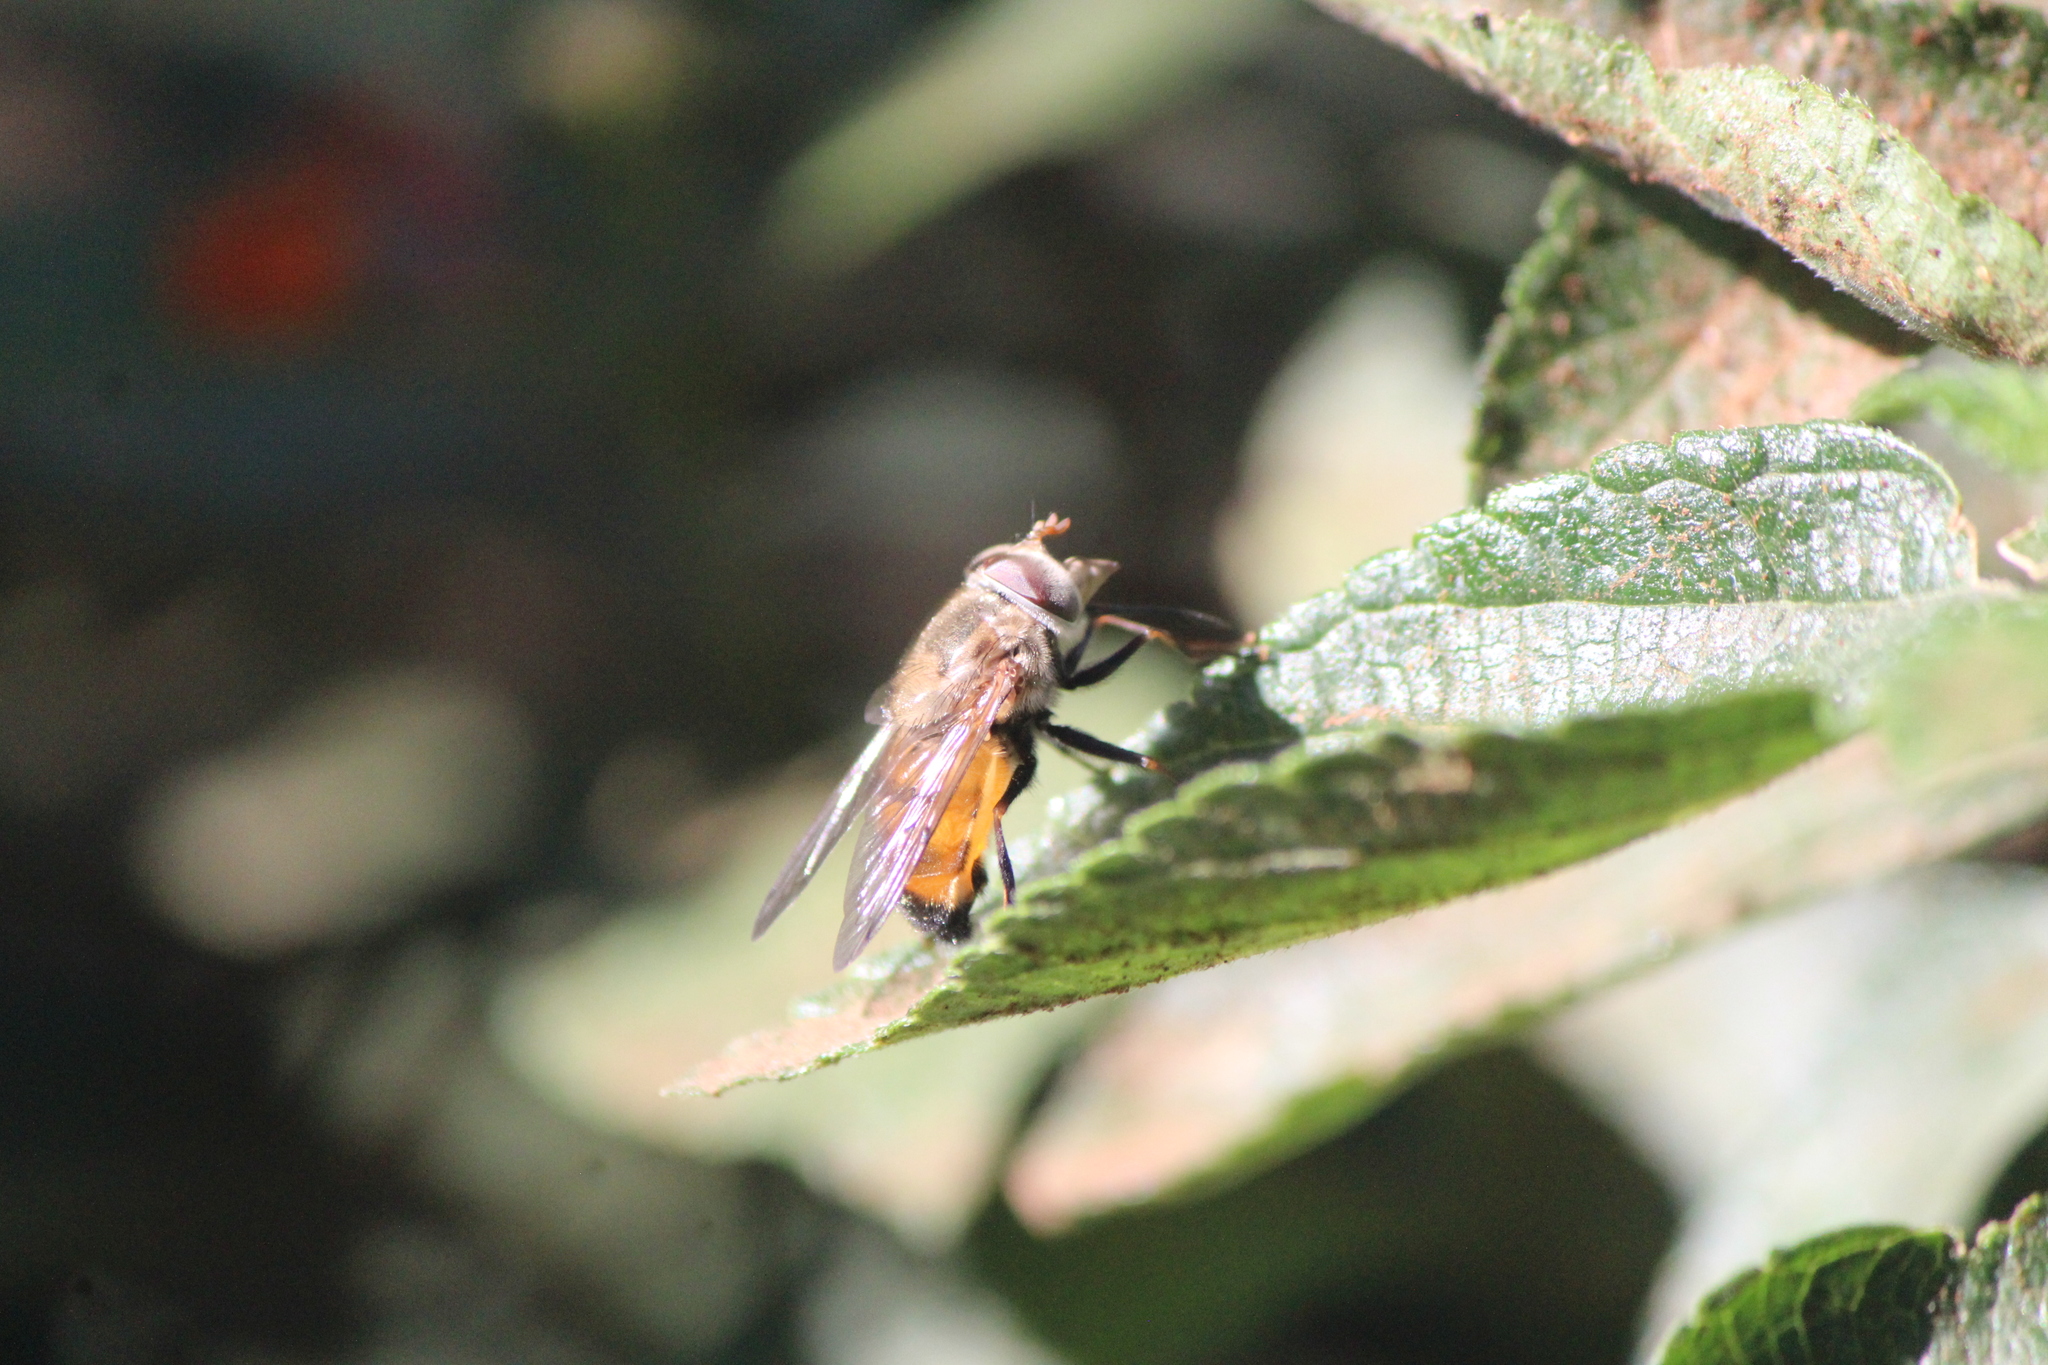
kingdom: Animalia
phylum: Arthropoda
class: Insecta
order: Diptera
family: Syrphidae
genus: Copestylum
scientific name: Copestylum haagii
